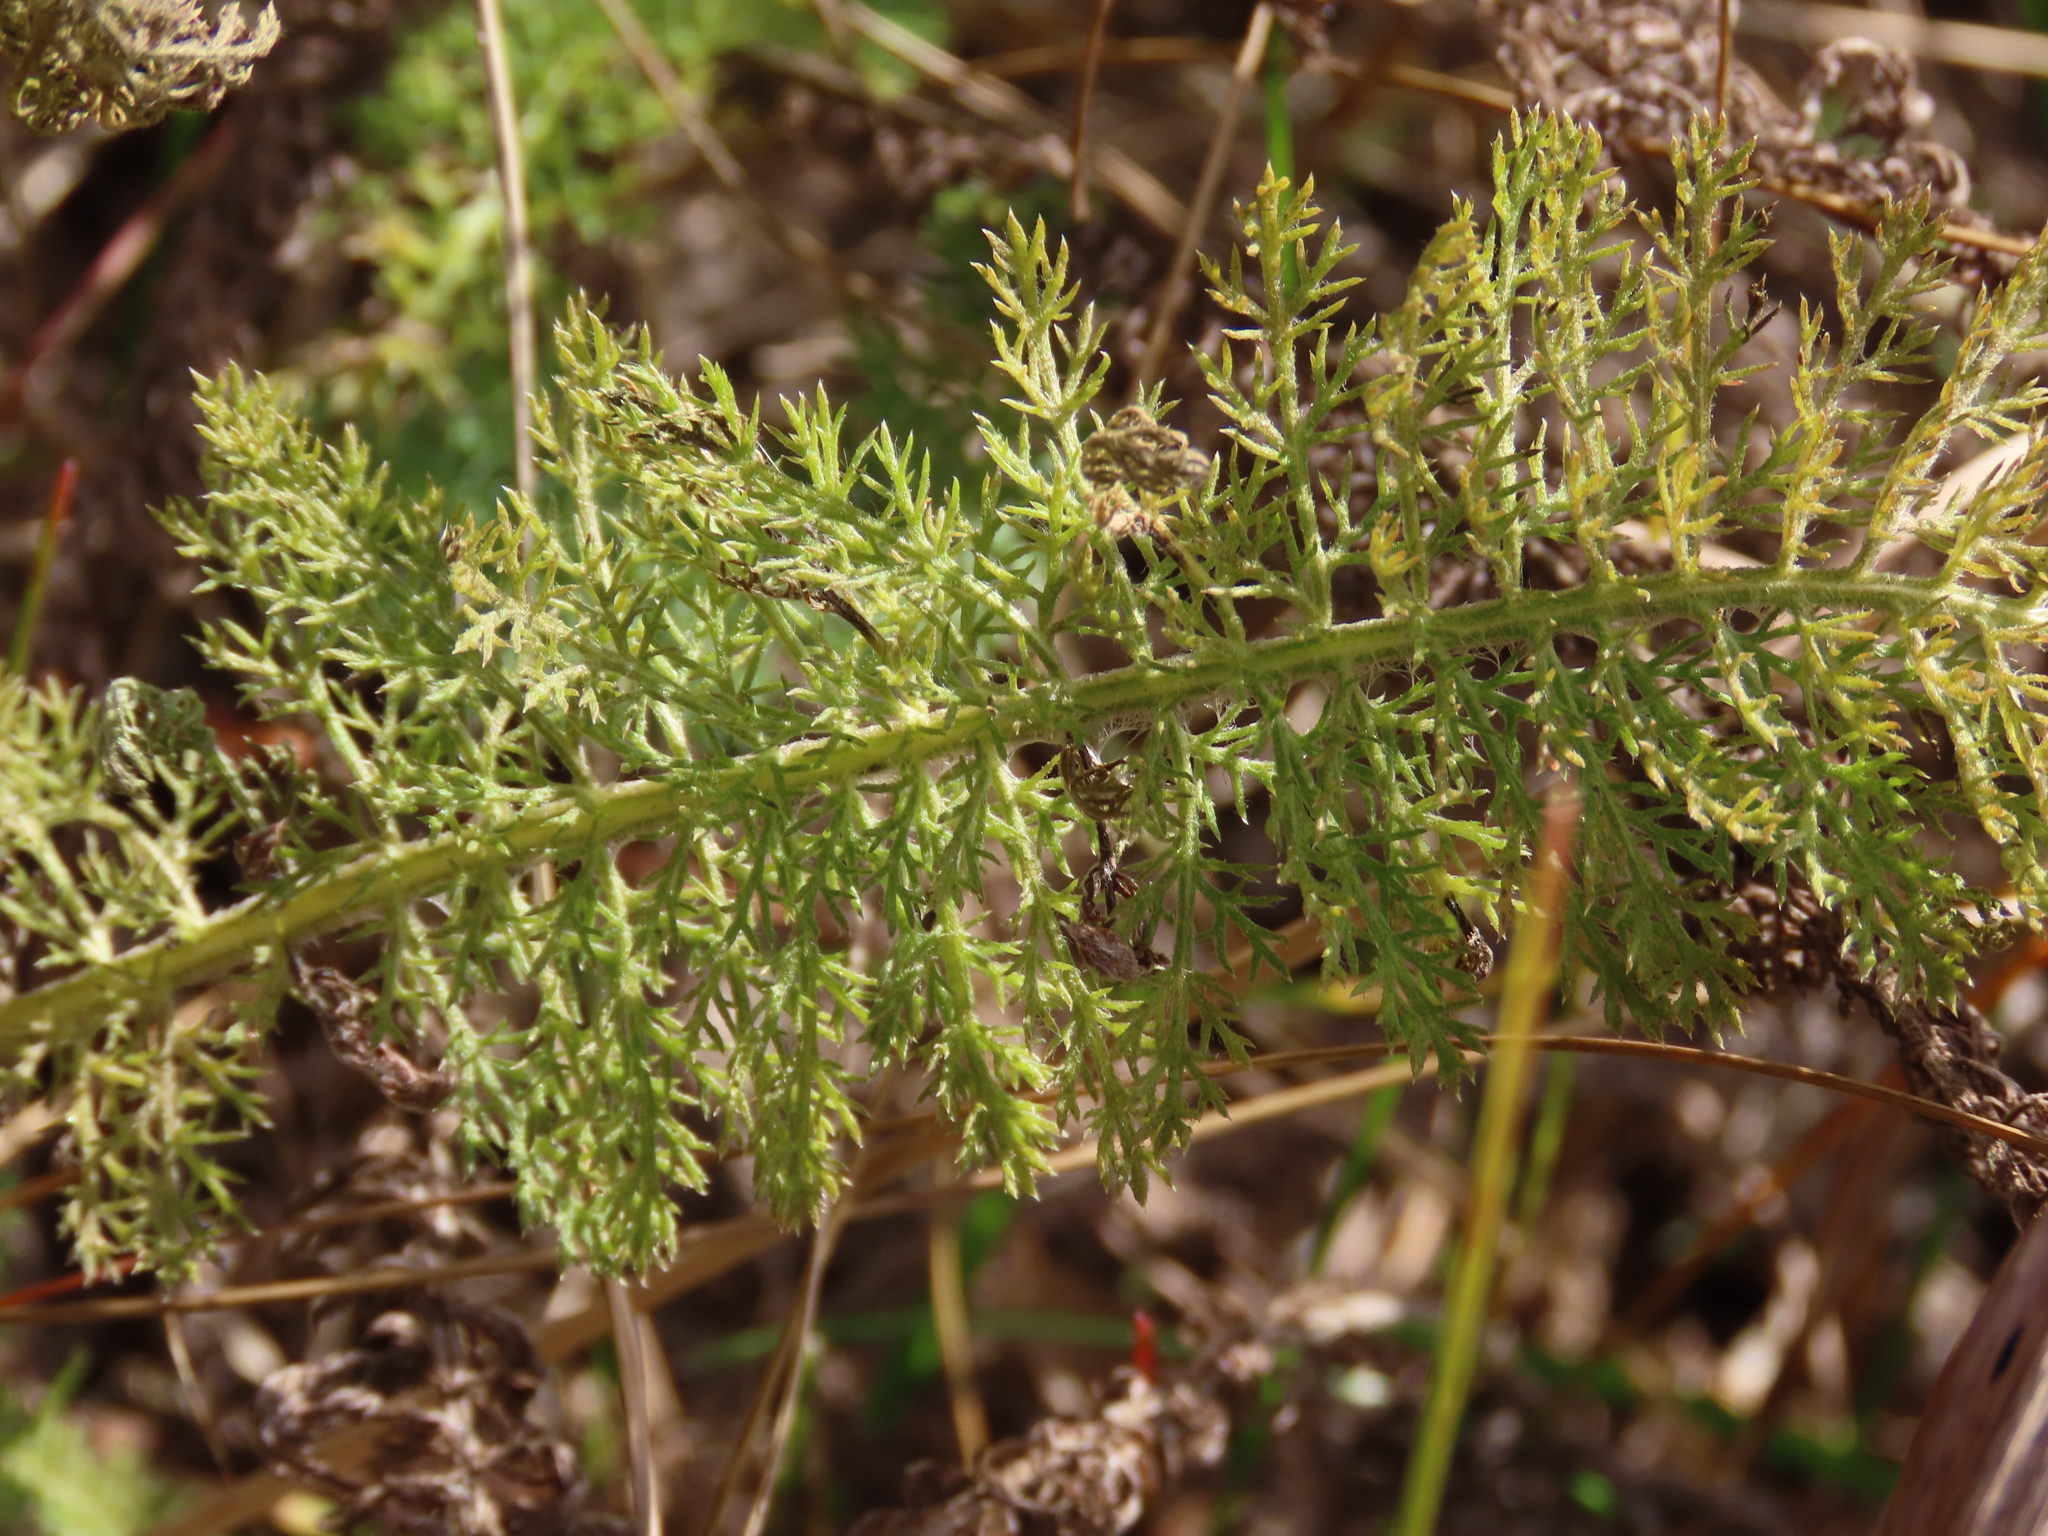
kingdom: Plantae
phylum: Tracheophyta
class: Magnoliopsida
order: Asterales
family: Asteraceae
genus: Achillea
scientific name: Achillea millefolium
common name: Yarrow
